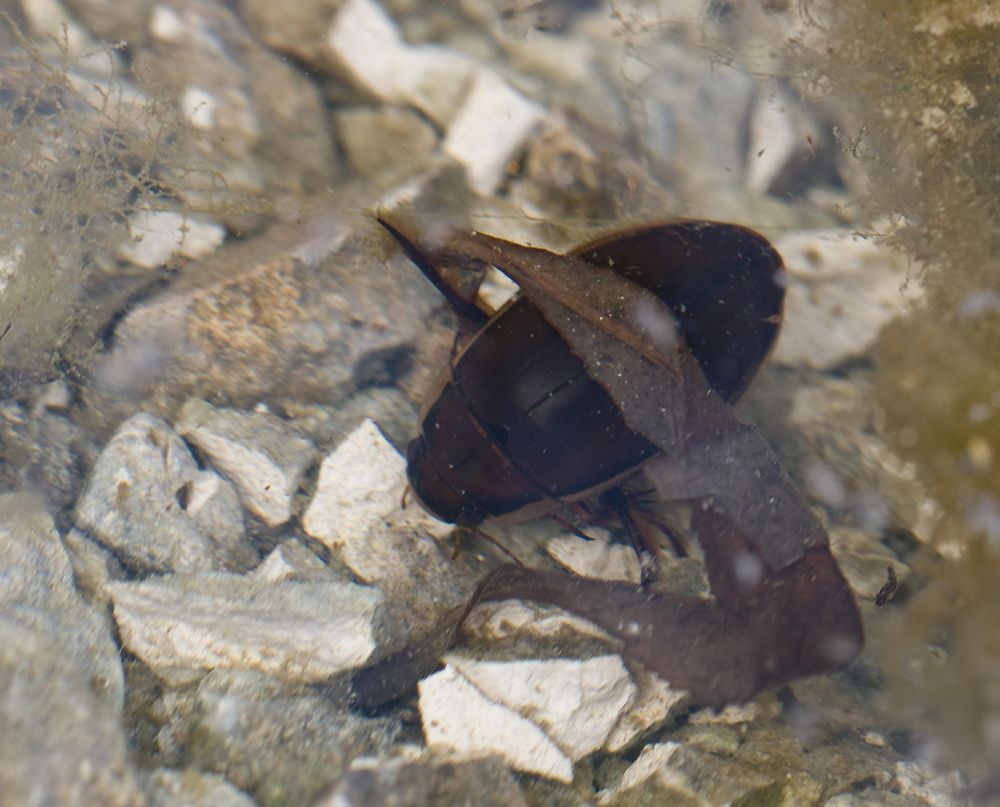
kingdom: Animalia
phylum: Arthropoda
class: Insecta
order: Coleoptera
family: Dytiscidae
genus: Dytiscus
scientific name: Dytiscus dimidiatus
